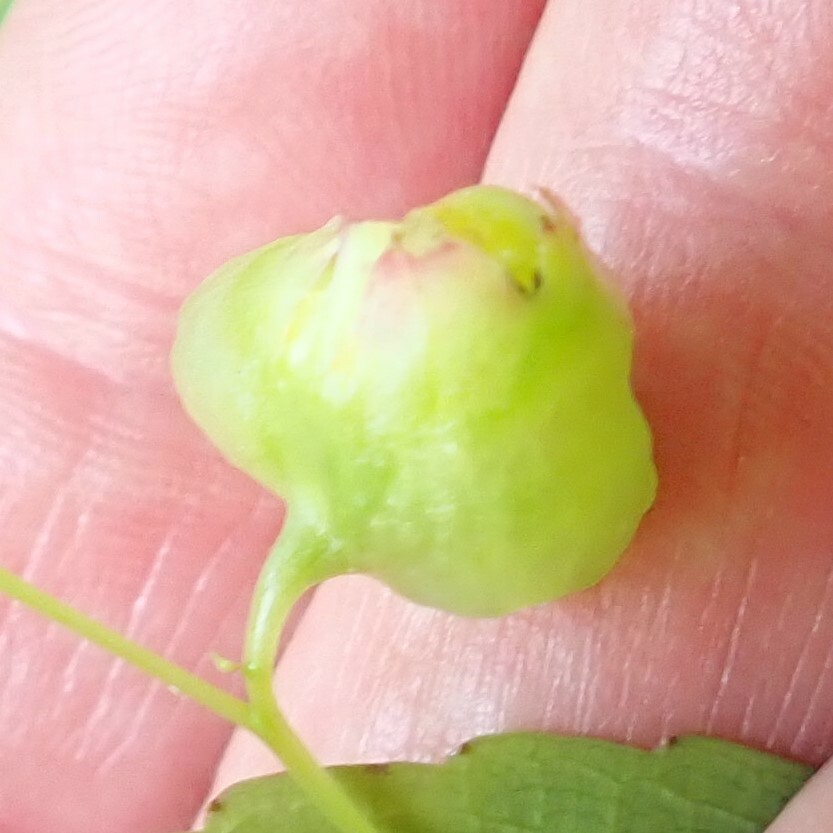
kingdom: Animalia
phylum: Arthropoda
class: Insecta
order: Diptera
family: Cecidomyiidae
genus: Schizomyia
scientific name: Schizomyia impatientis
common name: Jewelweed gall midge
